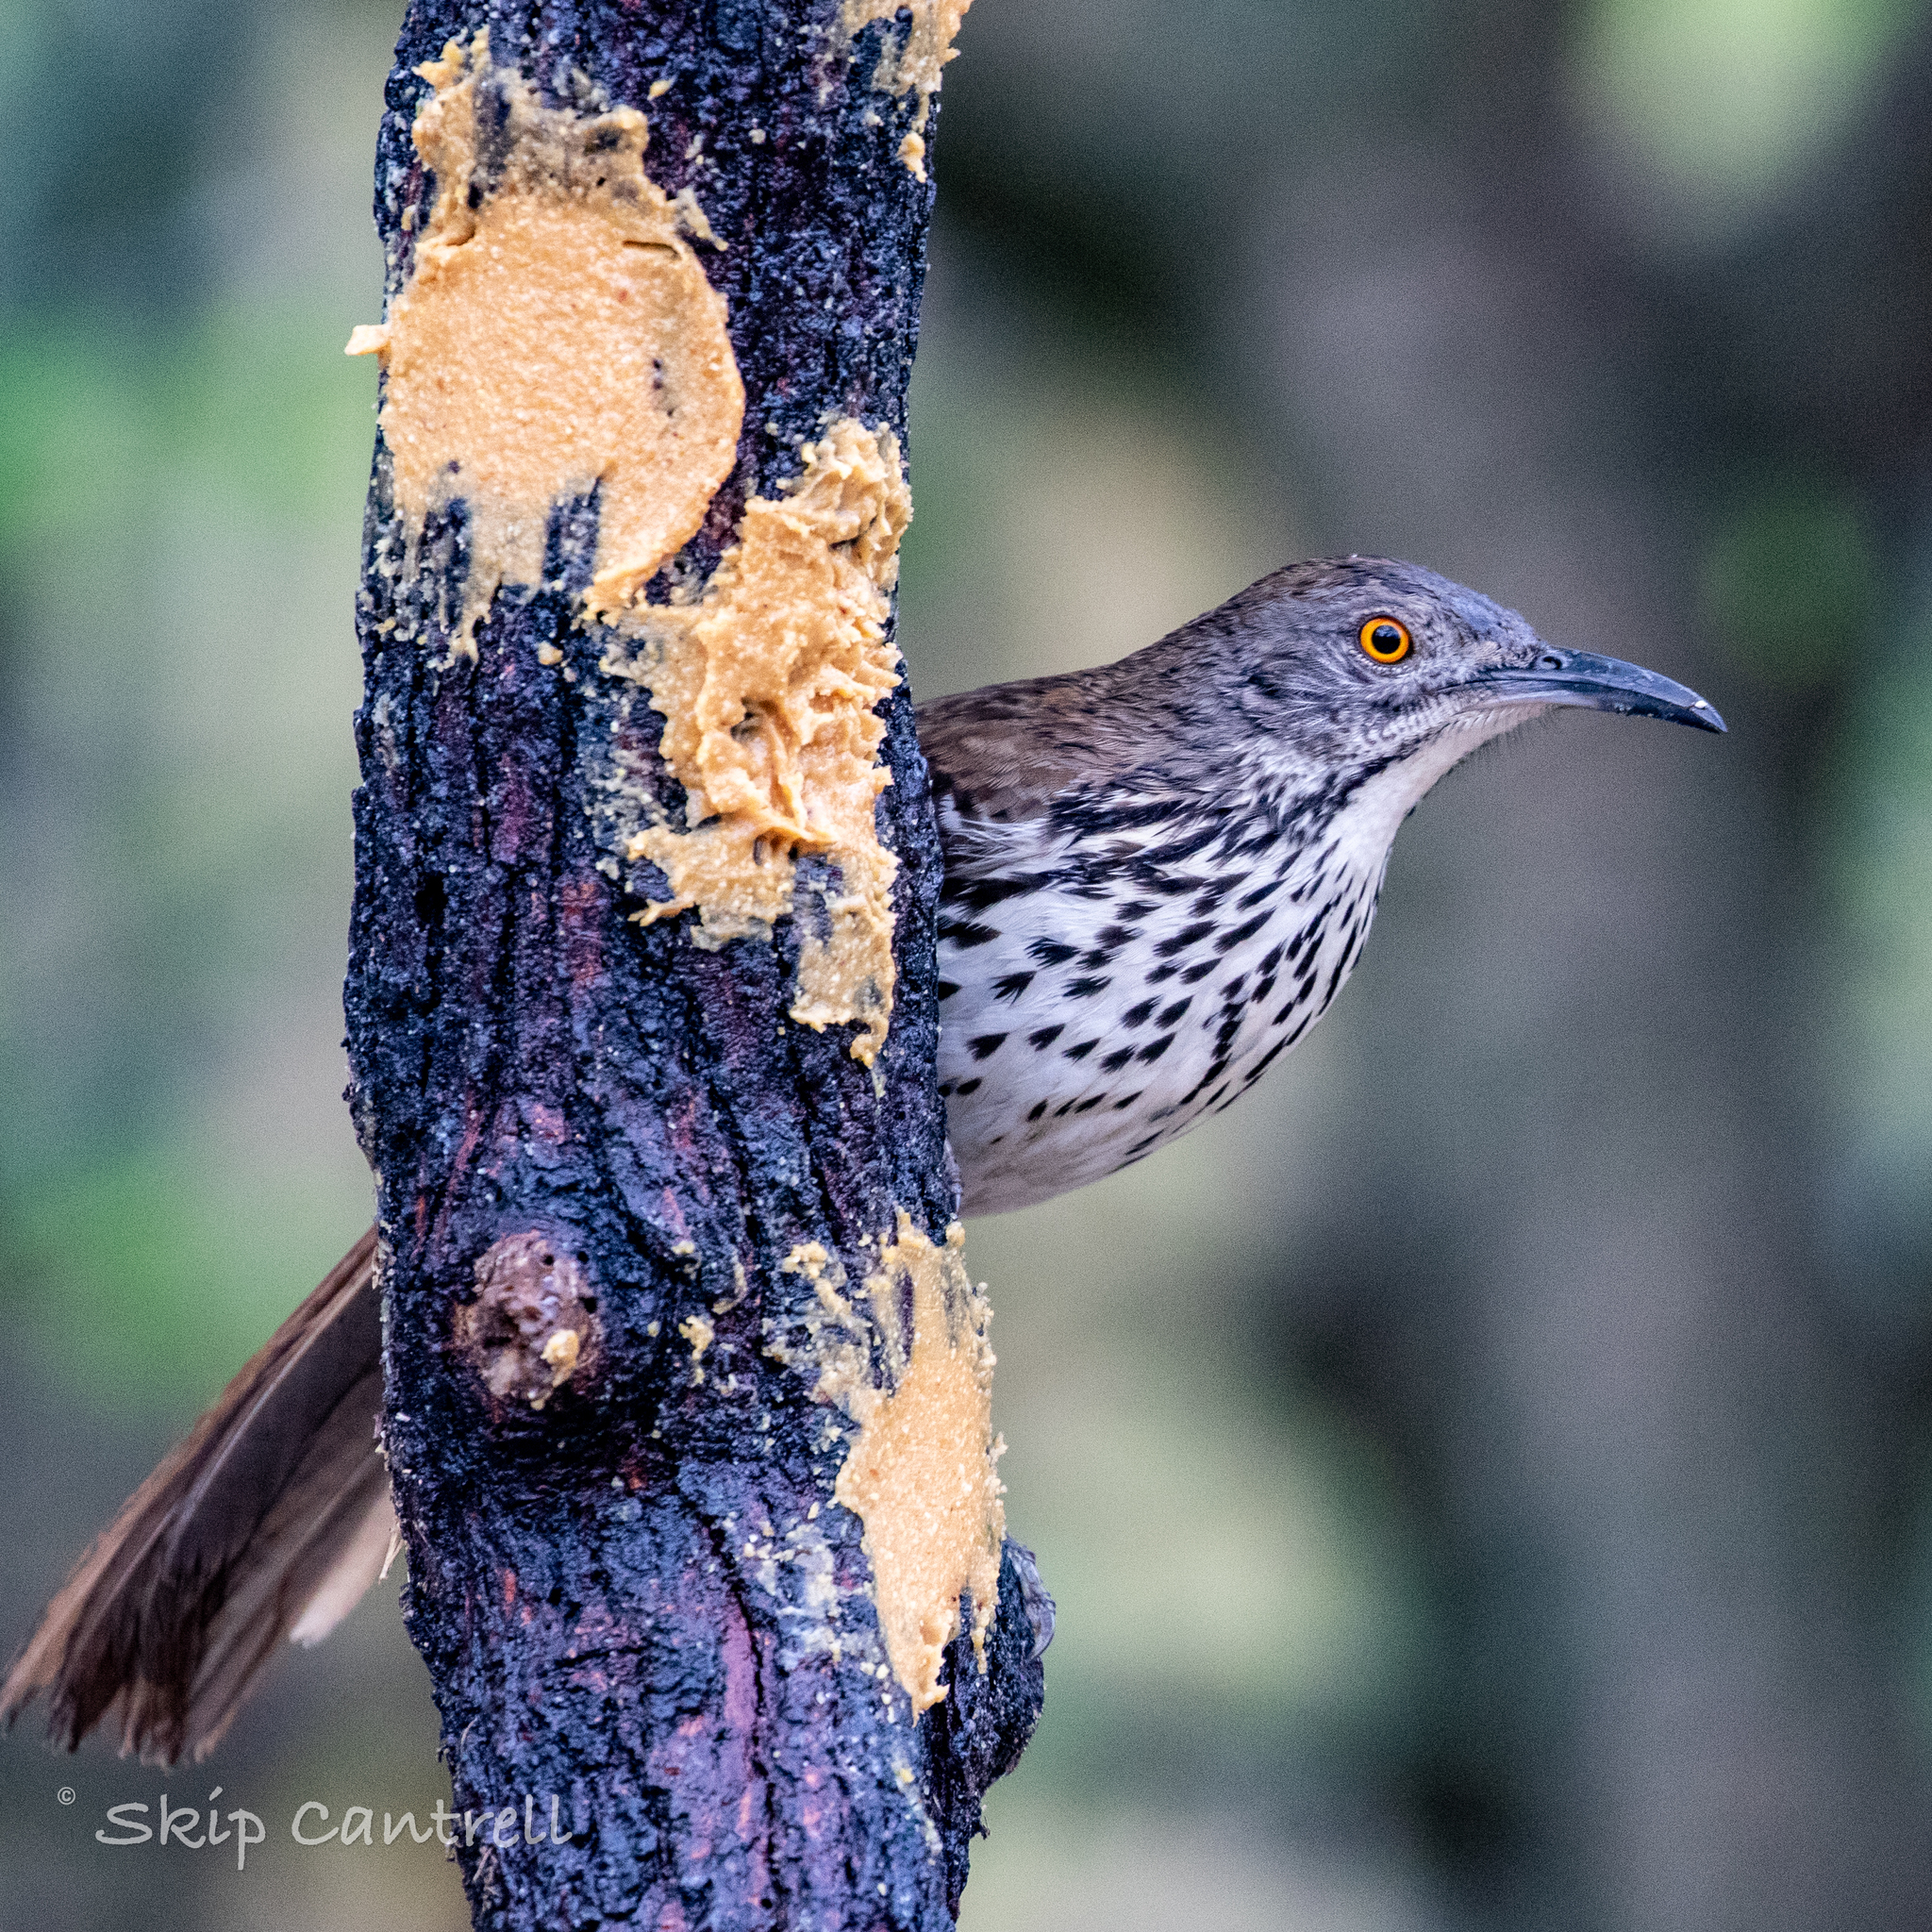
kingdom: Animalia
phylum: Chordata
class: Aves
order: Passeriformes
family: Mimidae
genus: Toxostoma
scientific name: Toxostoma longirostre
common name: Long-billed thrasher
